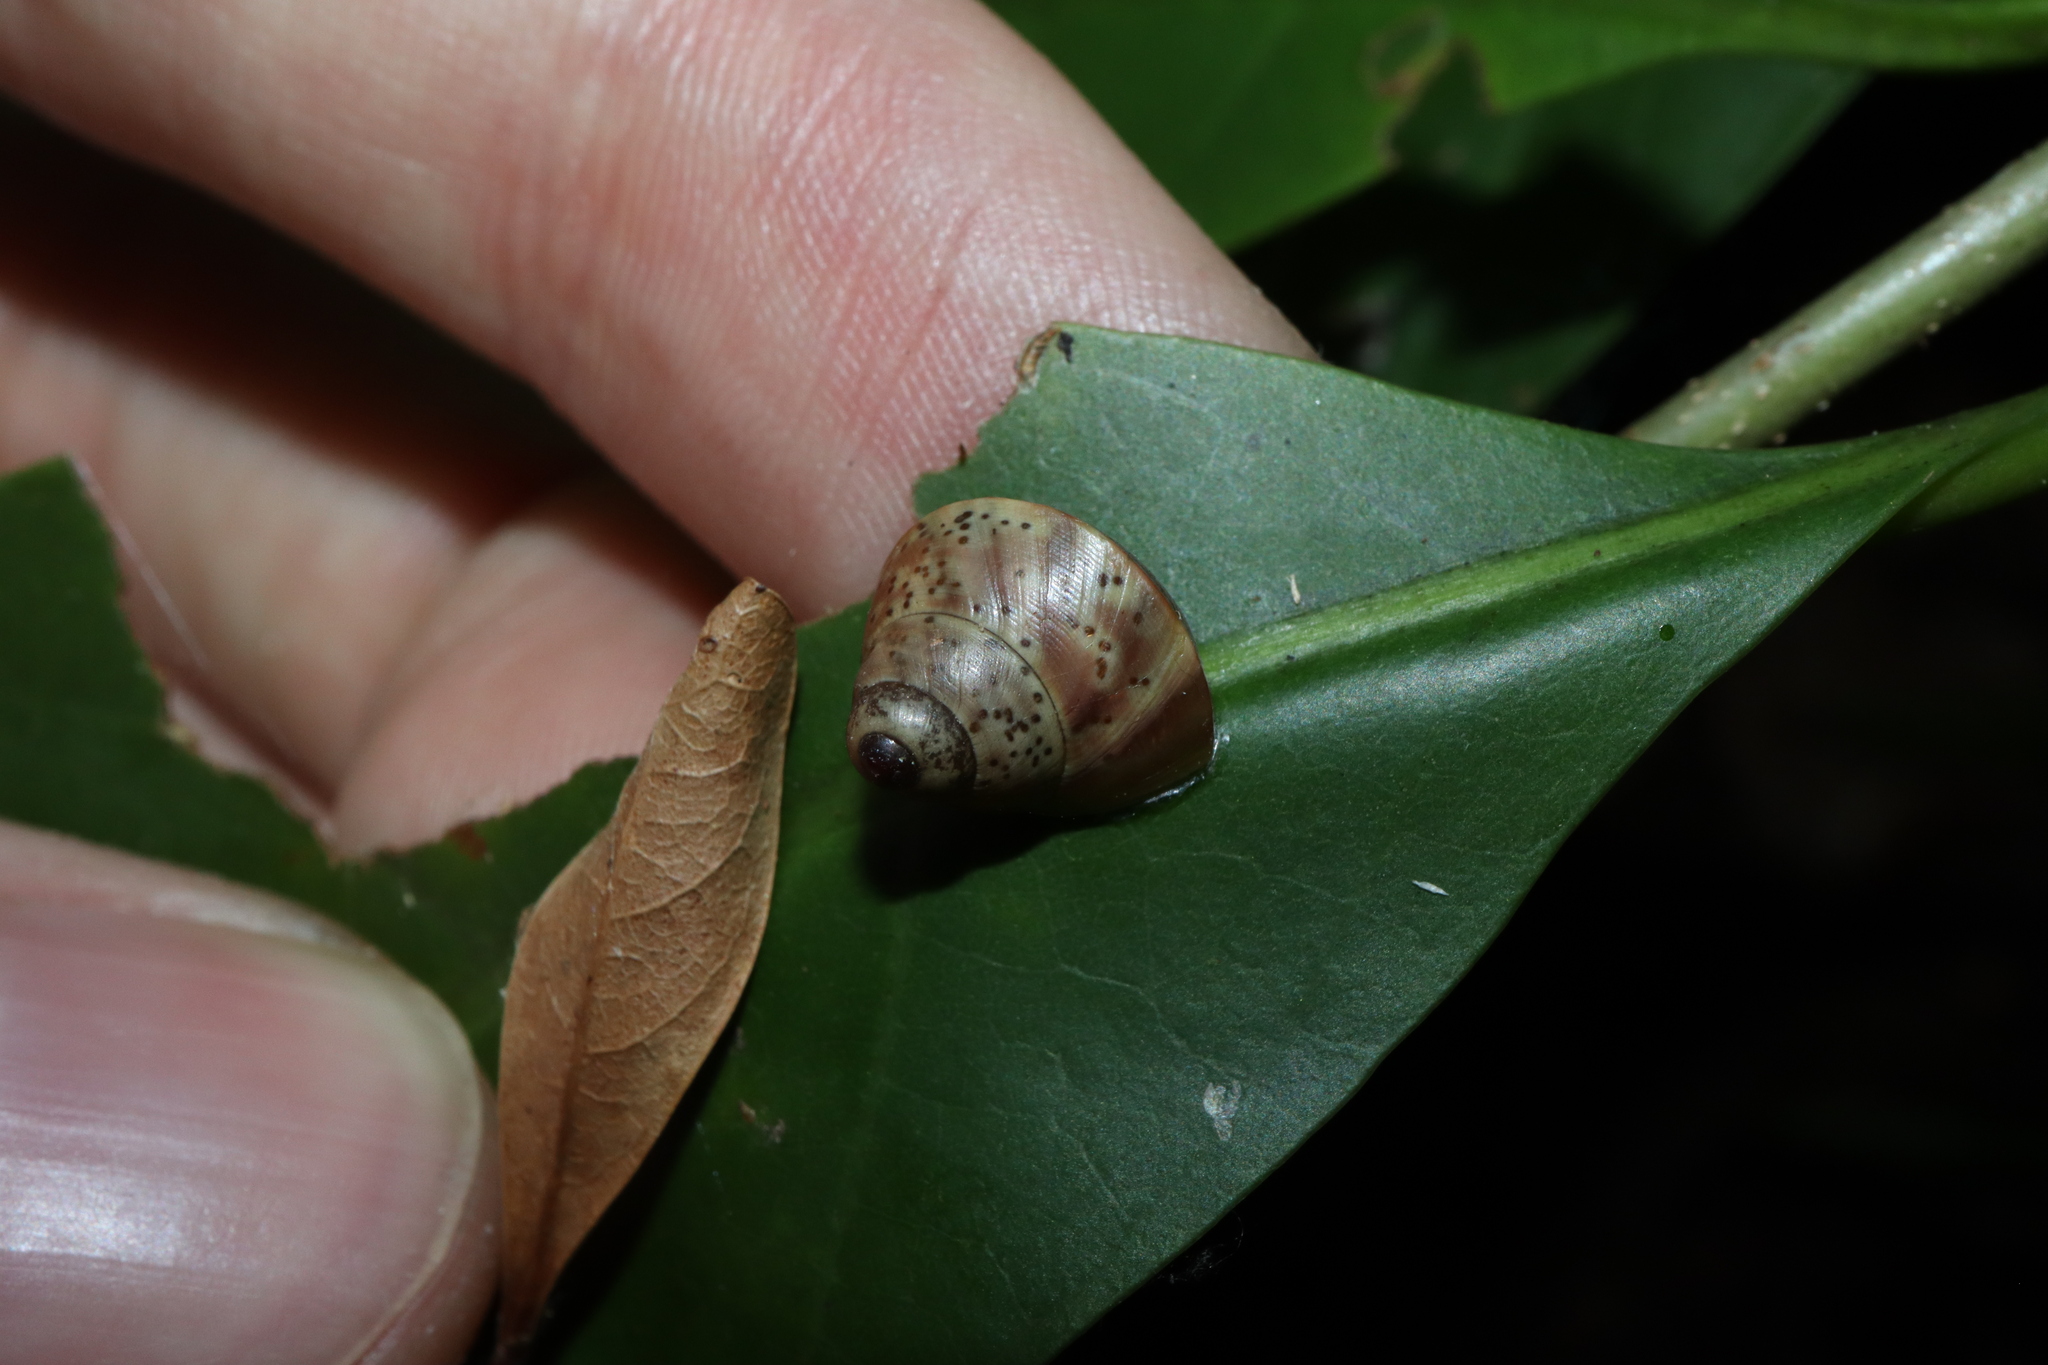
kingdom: Animalia
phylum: Mollusca
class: Gastropoda
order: Stylommatophora
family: Camaenidae
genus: Rhynchotrochus
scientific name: Rhynchotrochus macgillivrayi
